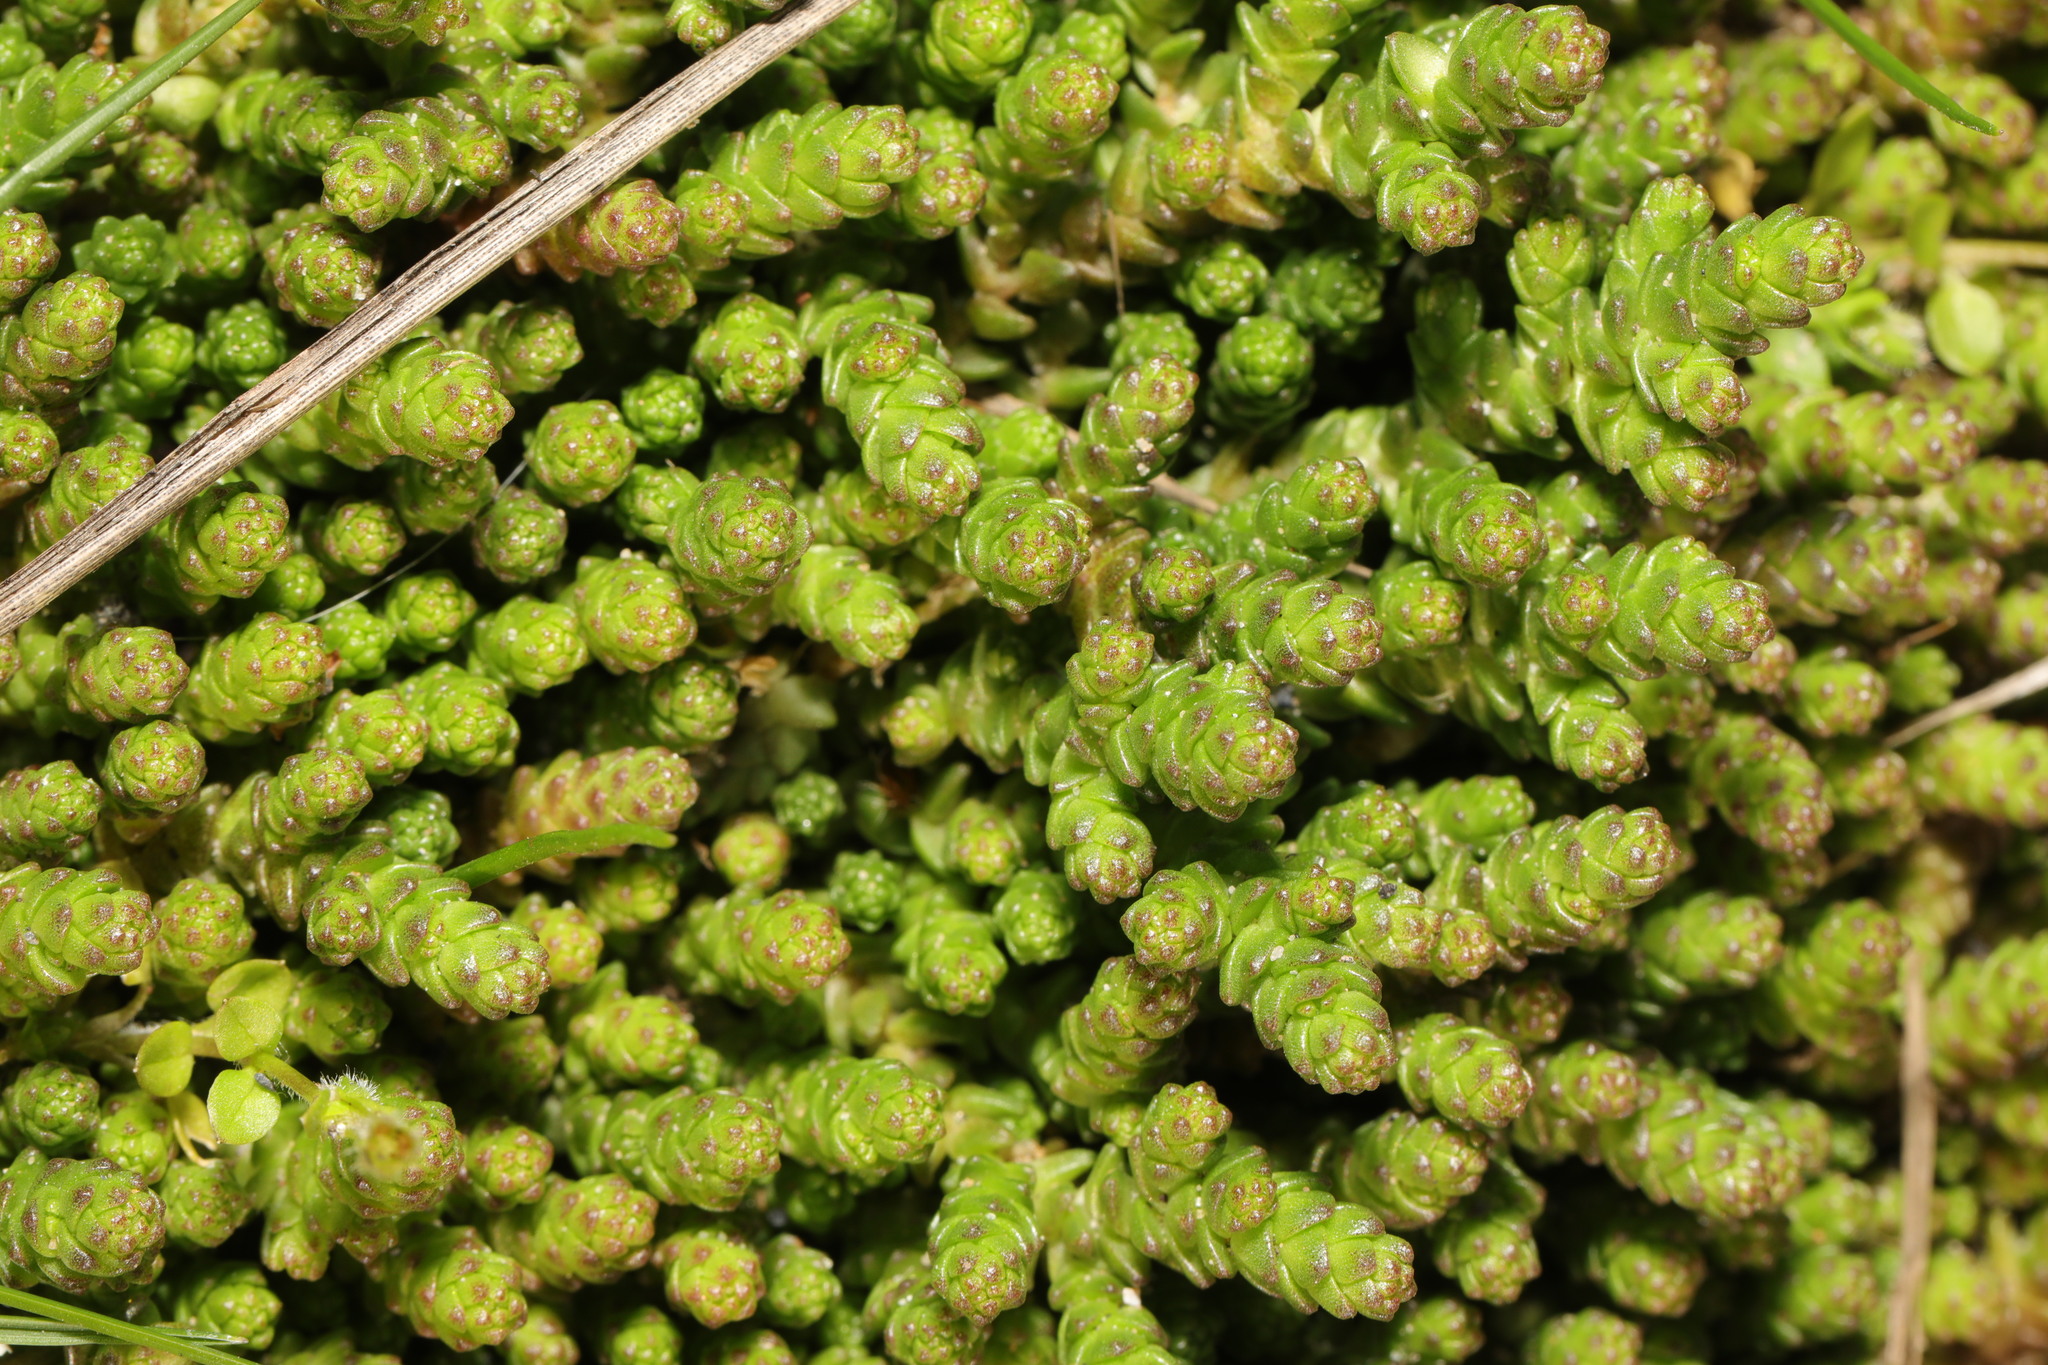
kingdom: Plantae
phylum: Tracheophyta
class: Magnoliopsida
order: Saxifragales
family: Crassulaceae
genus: Sedum
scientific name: Sedum acre
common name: Biting stonecrop
